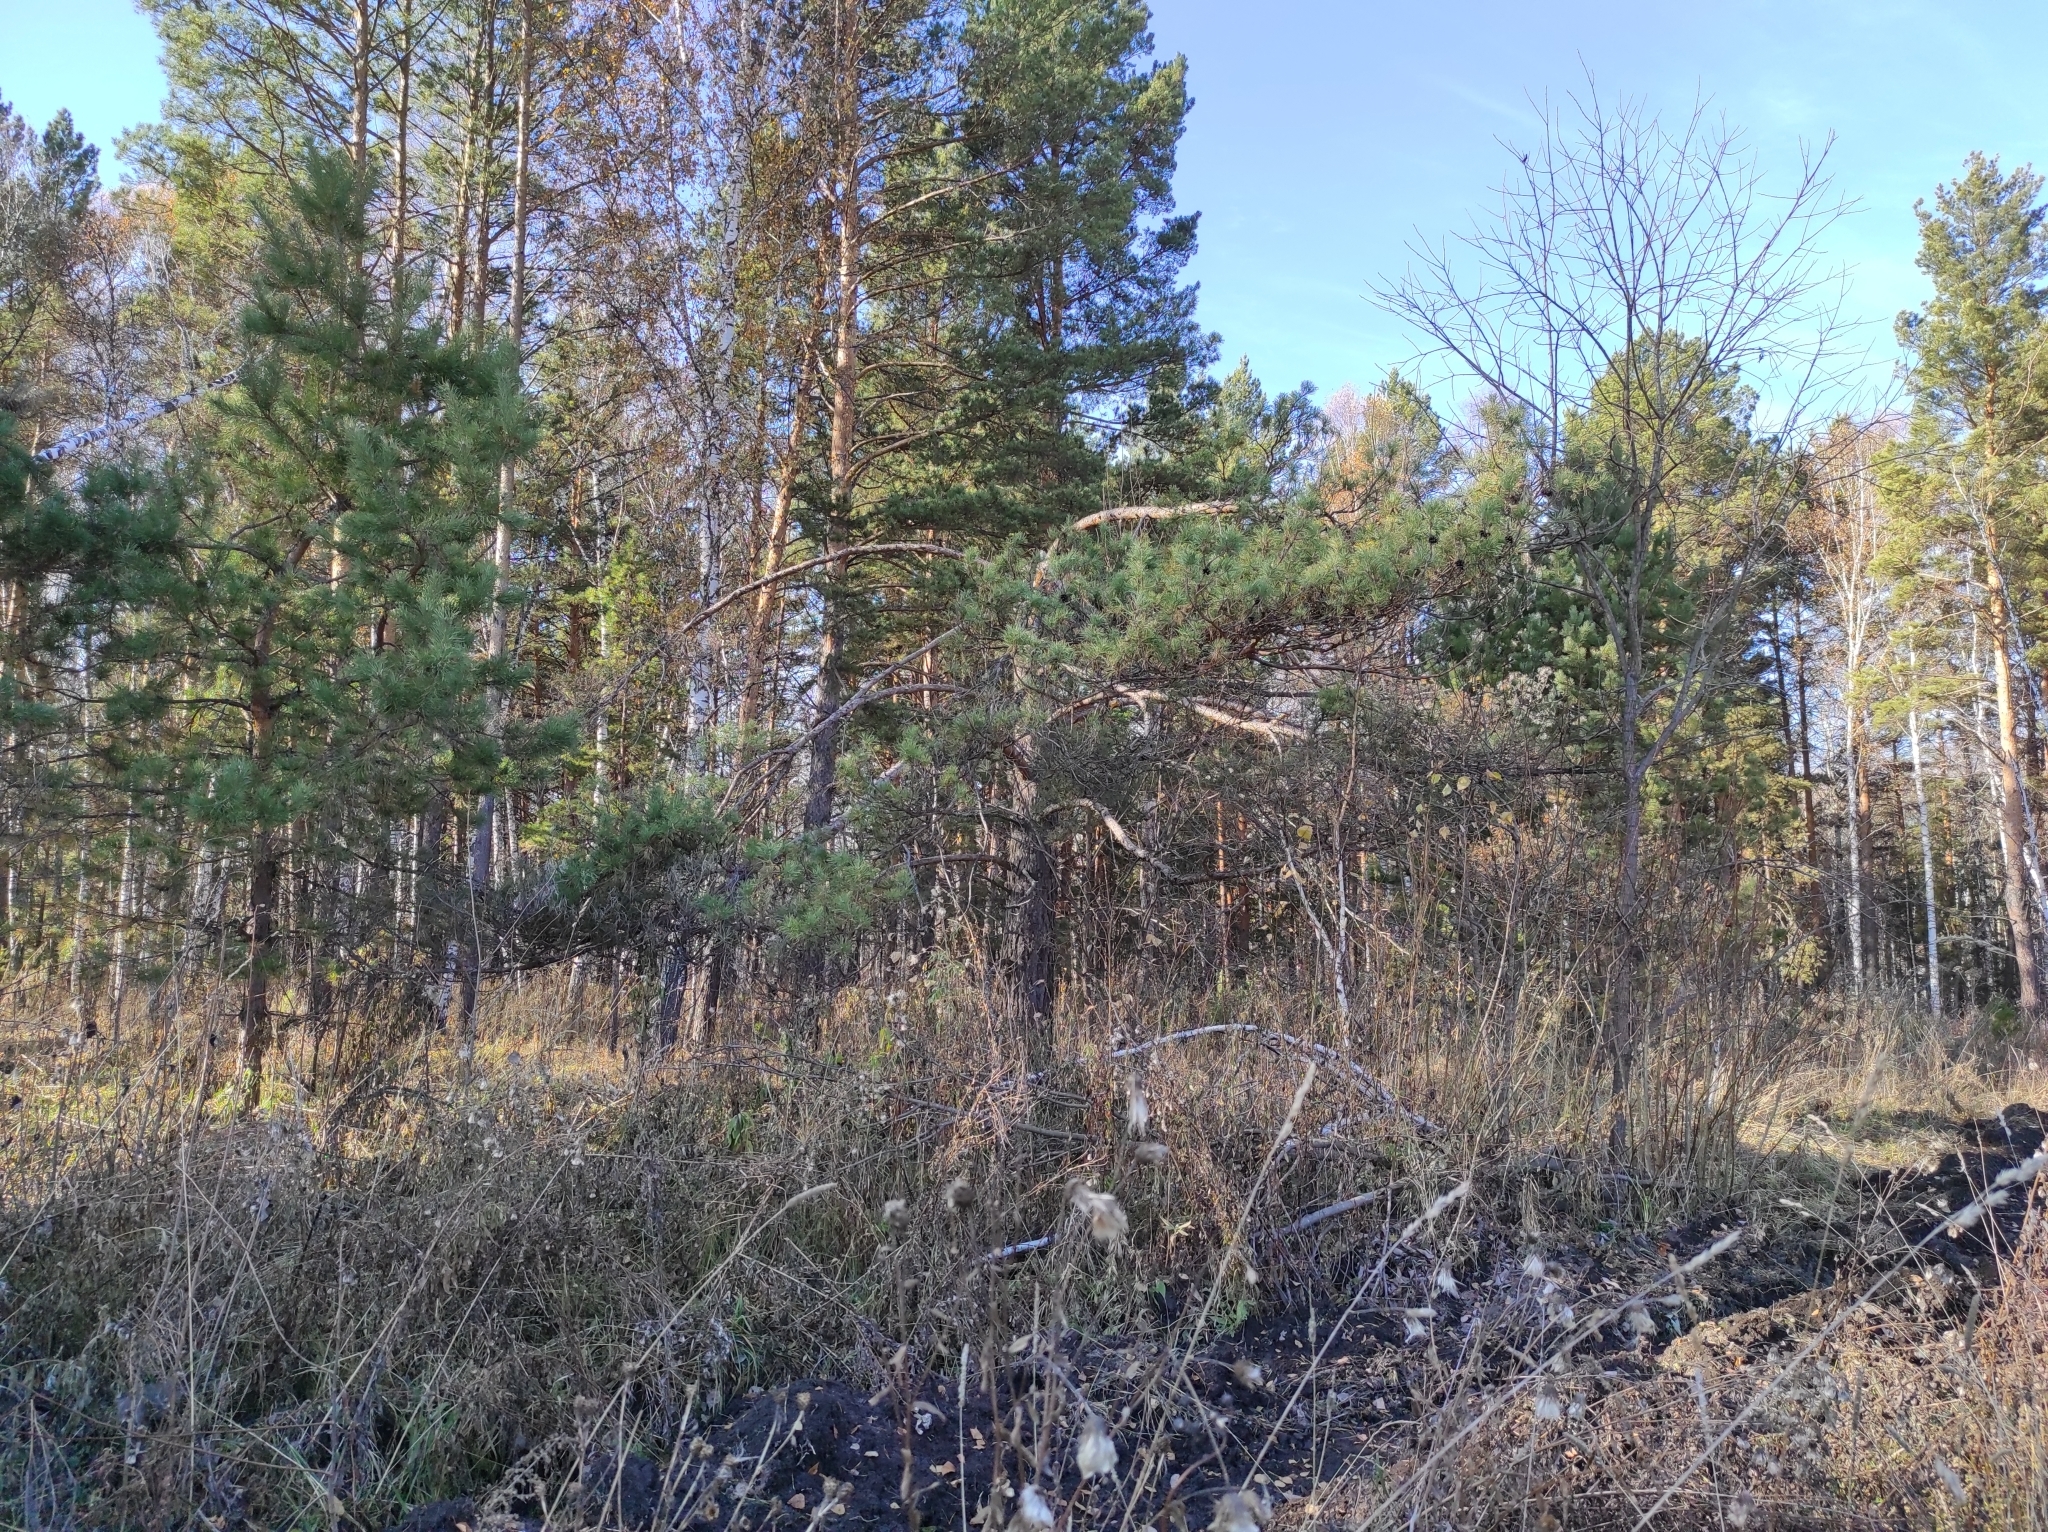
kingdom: Plantae
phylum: Tracheophyta
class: Pinopsida
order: Pinales
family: Pinaceae
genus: Pinus
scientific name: Pinus sylvestris
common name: Scots pine
